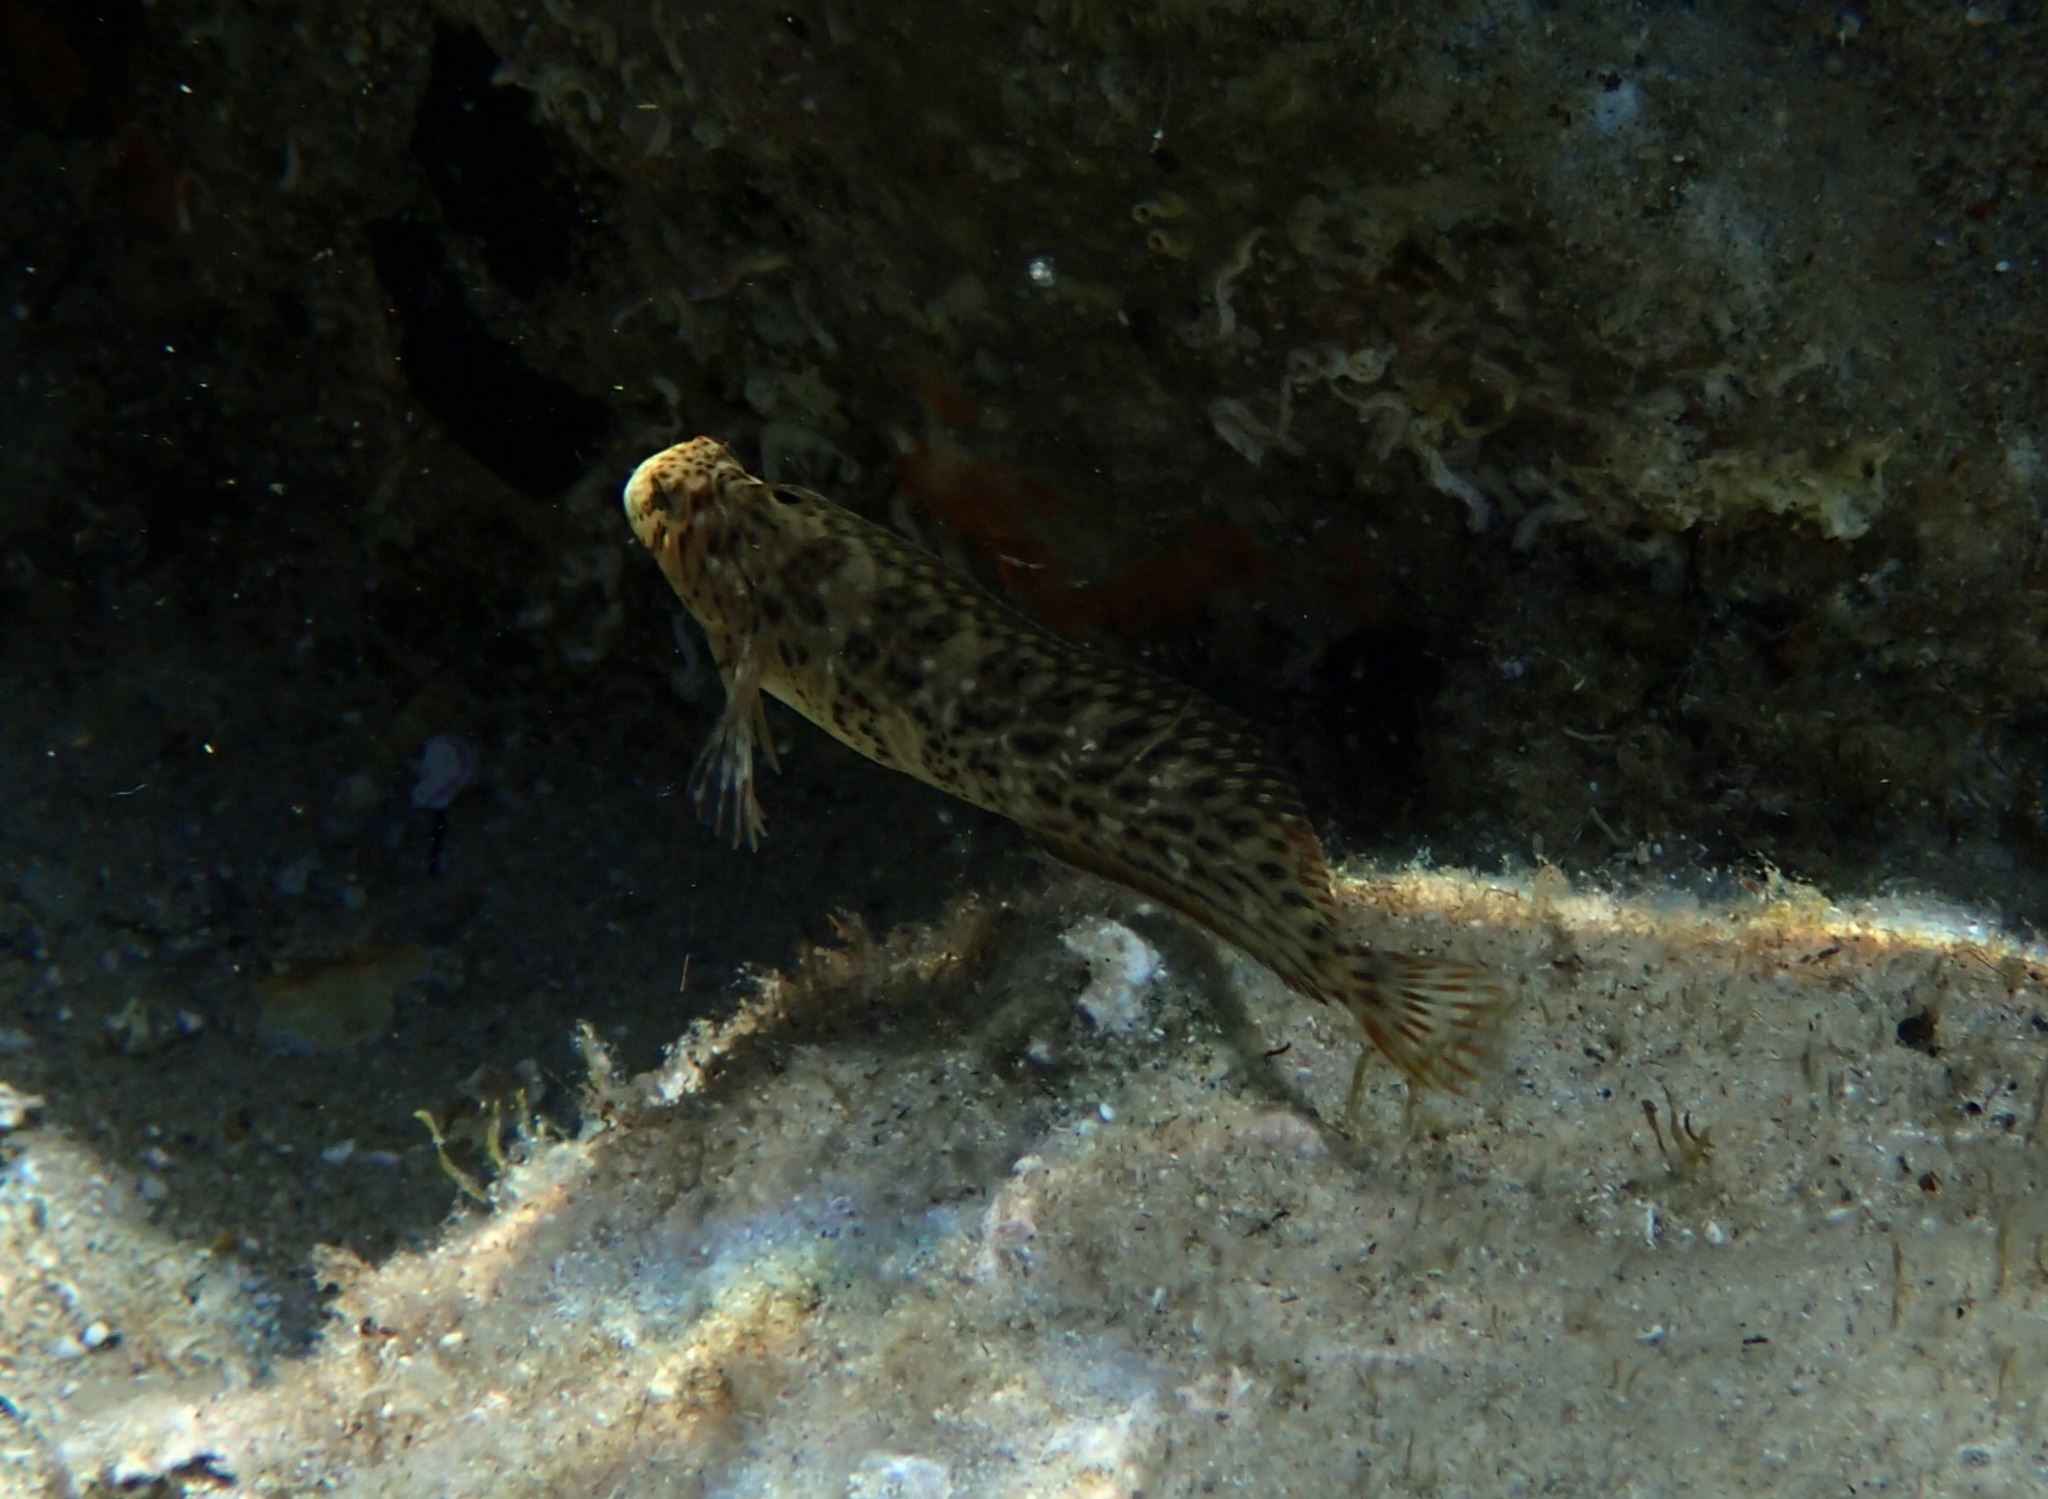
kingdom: Animalia
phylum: Chordata
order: Perciformes
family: Blenniidae
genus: Parablennius
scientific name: Parablennius sanguinolentus
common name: Black sea blenny
